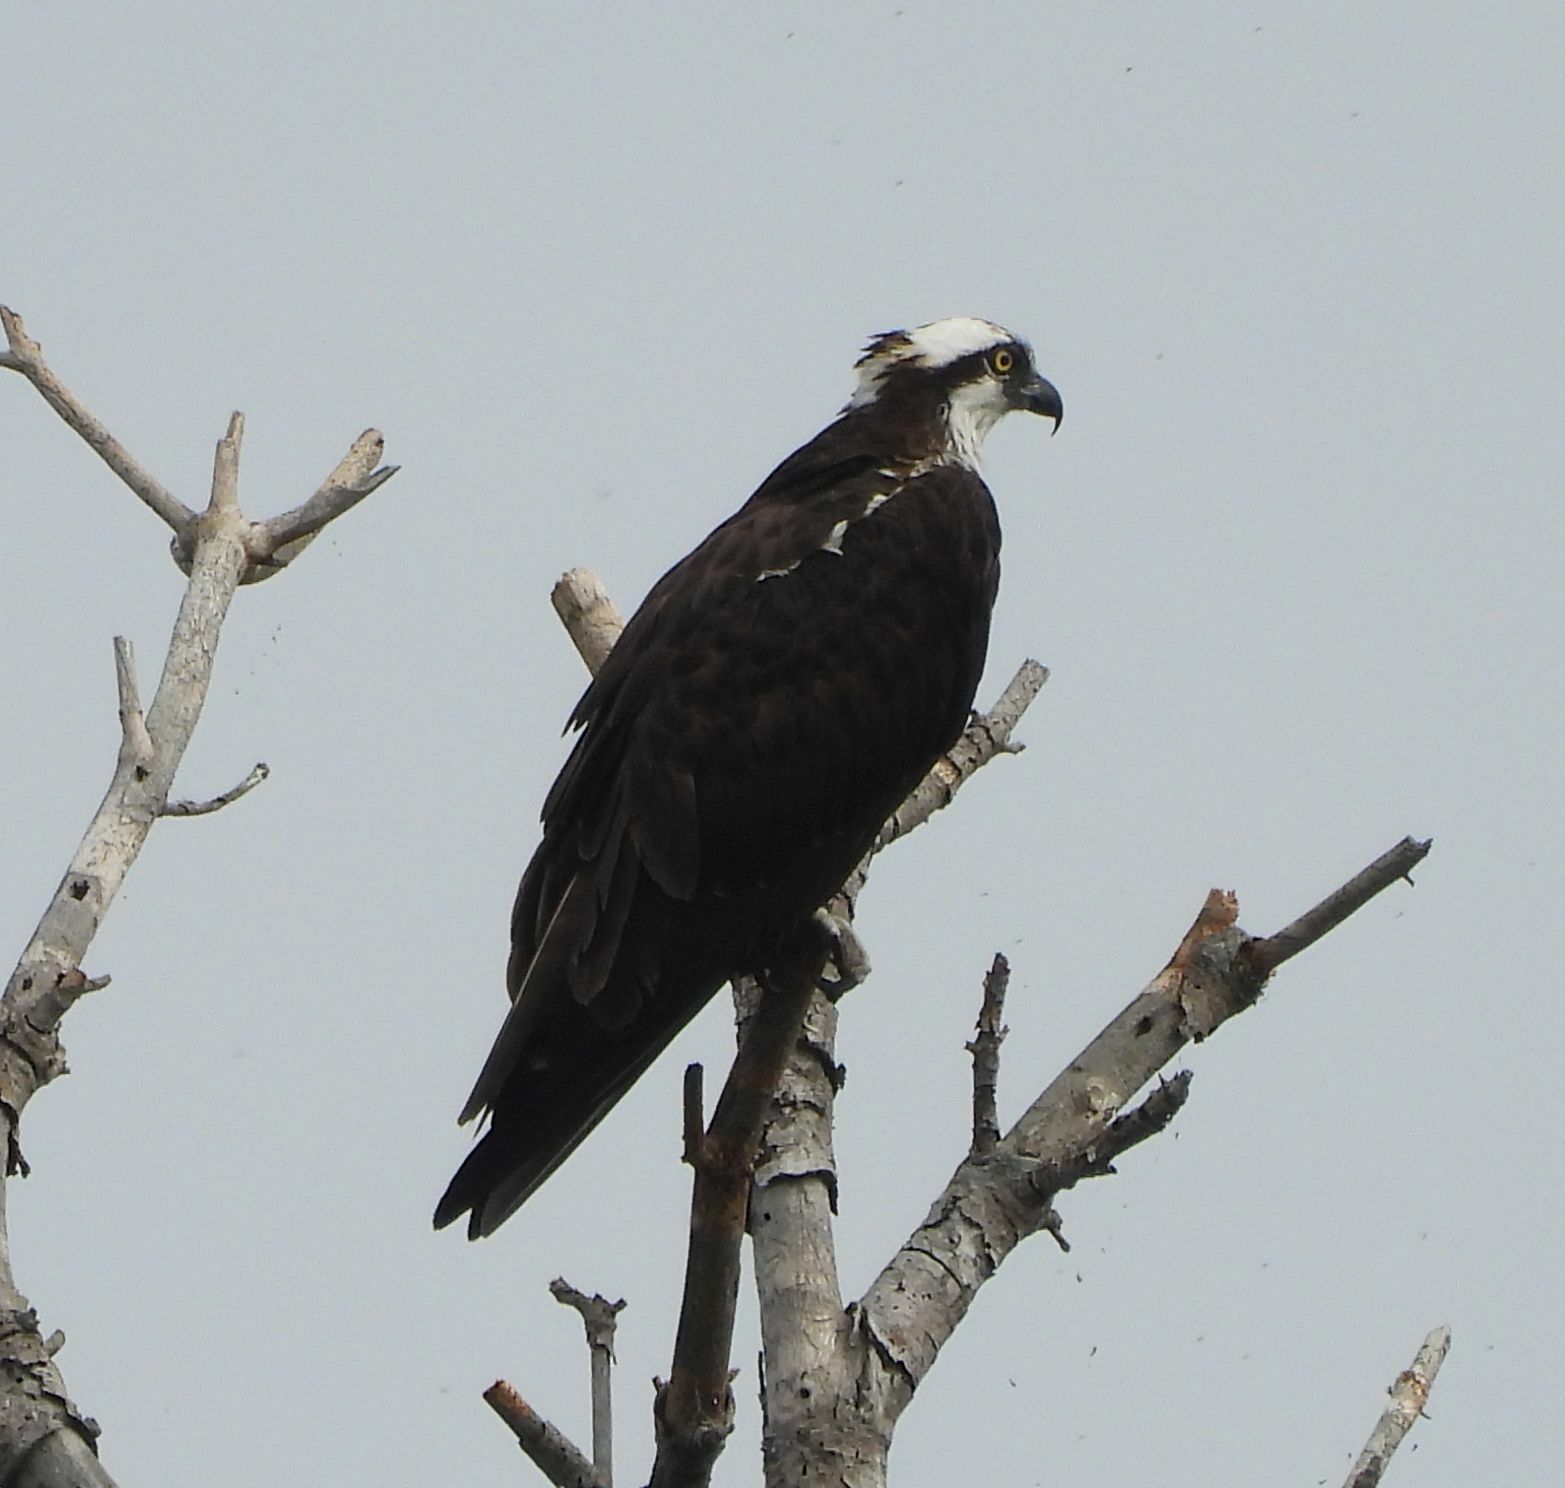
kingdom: Animalia
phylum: Chordata
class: Aves
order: Accipitriformes
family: Pandionidae
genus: Pandion
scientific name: Pandion haliaetus
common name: Osprey
